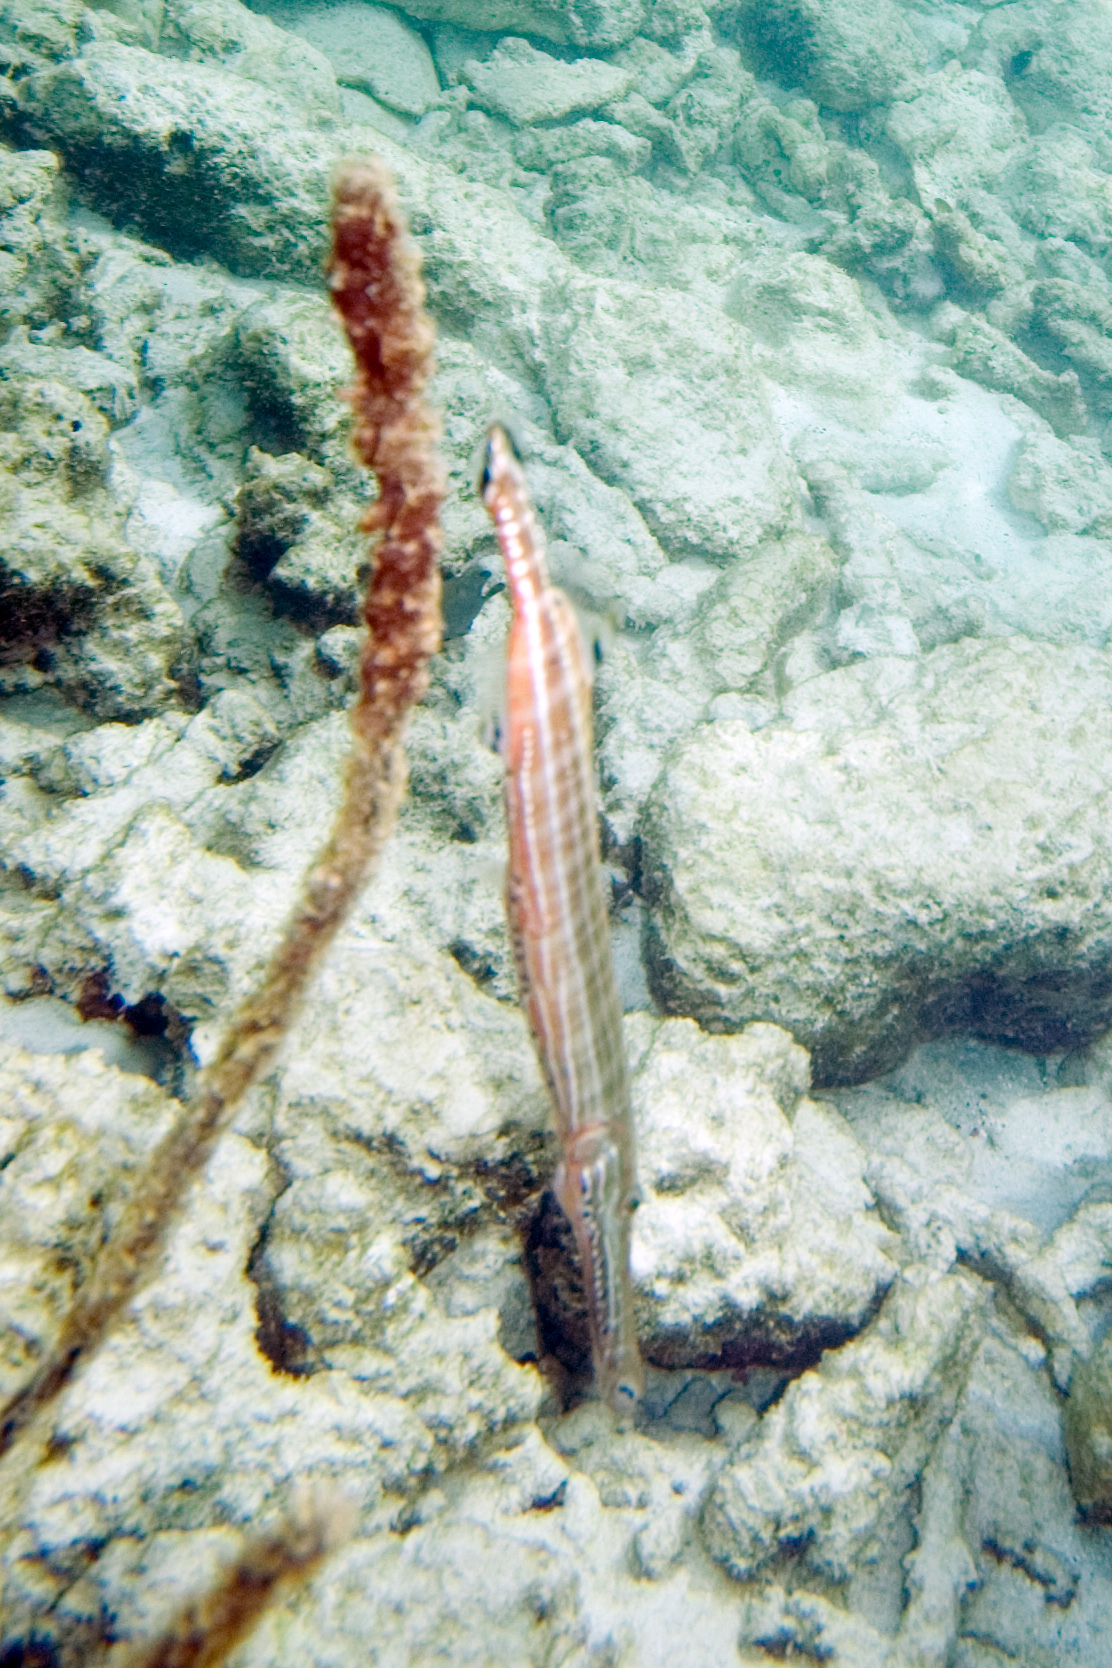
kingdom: Animalia
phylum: Chordata
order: Syngnathiformes
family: Aulostomidae
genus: Aulostomus
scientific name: Aulostomus maculatus
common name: West atlantic trumpetfish
